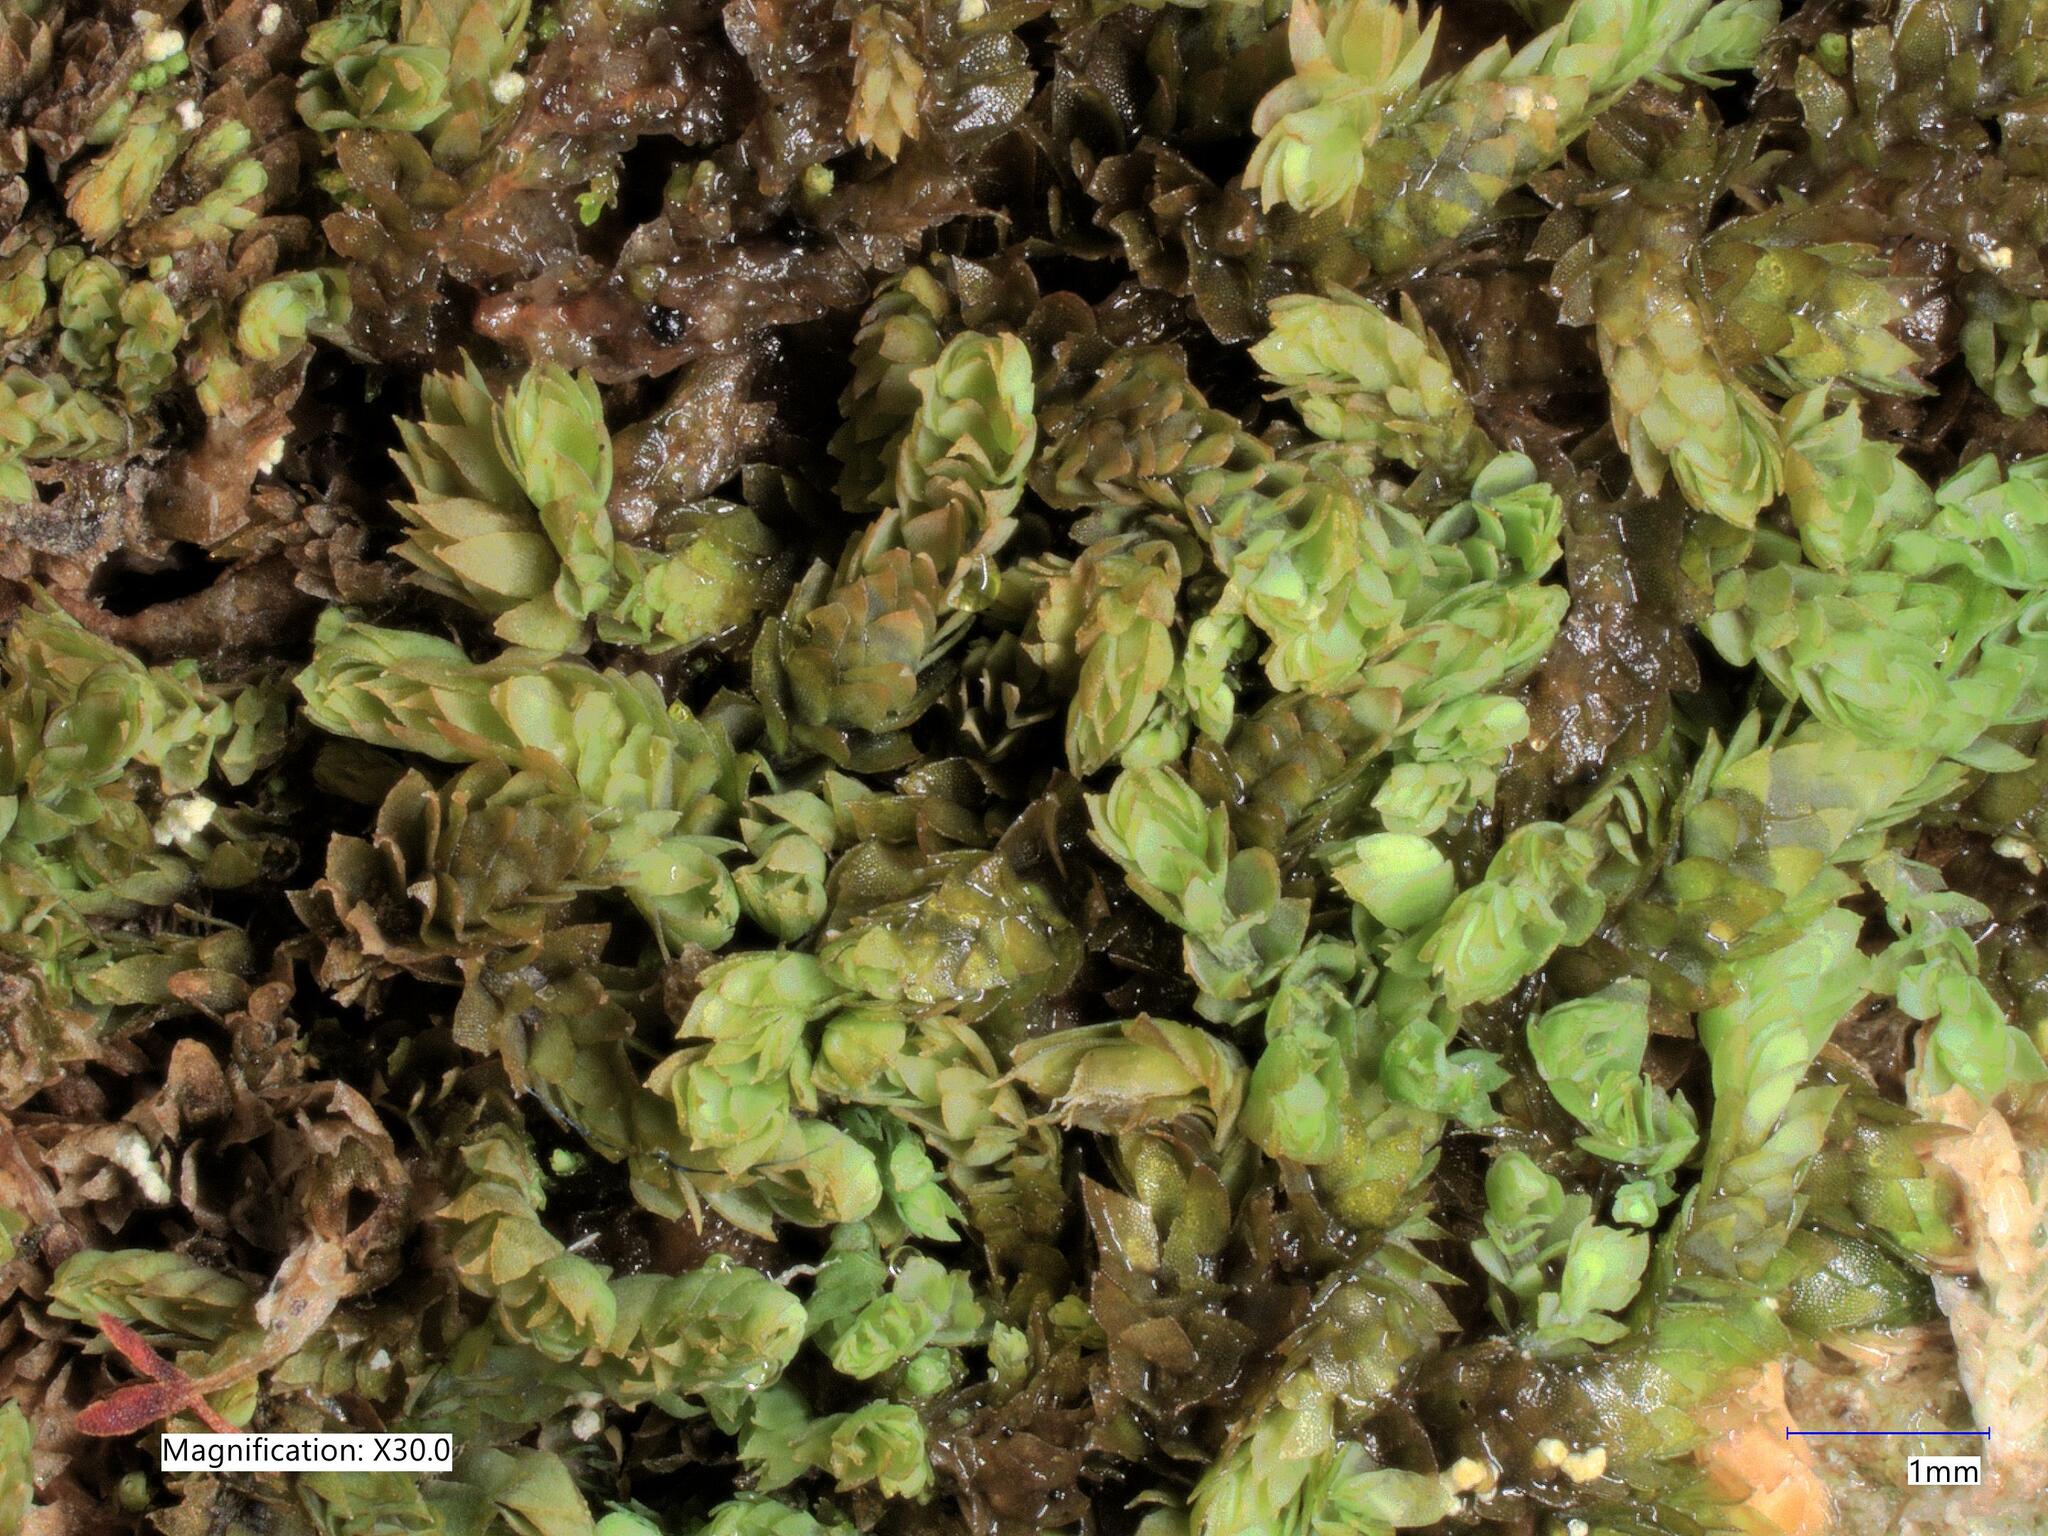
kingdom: Plantae
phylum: Marchantiophyta
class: Jungermanniopsida
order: Jungermanniales
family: Scapaniaceae
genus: Douinia
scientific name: Douinia ovata
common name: Waxy earwort
